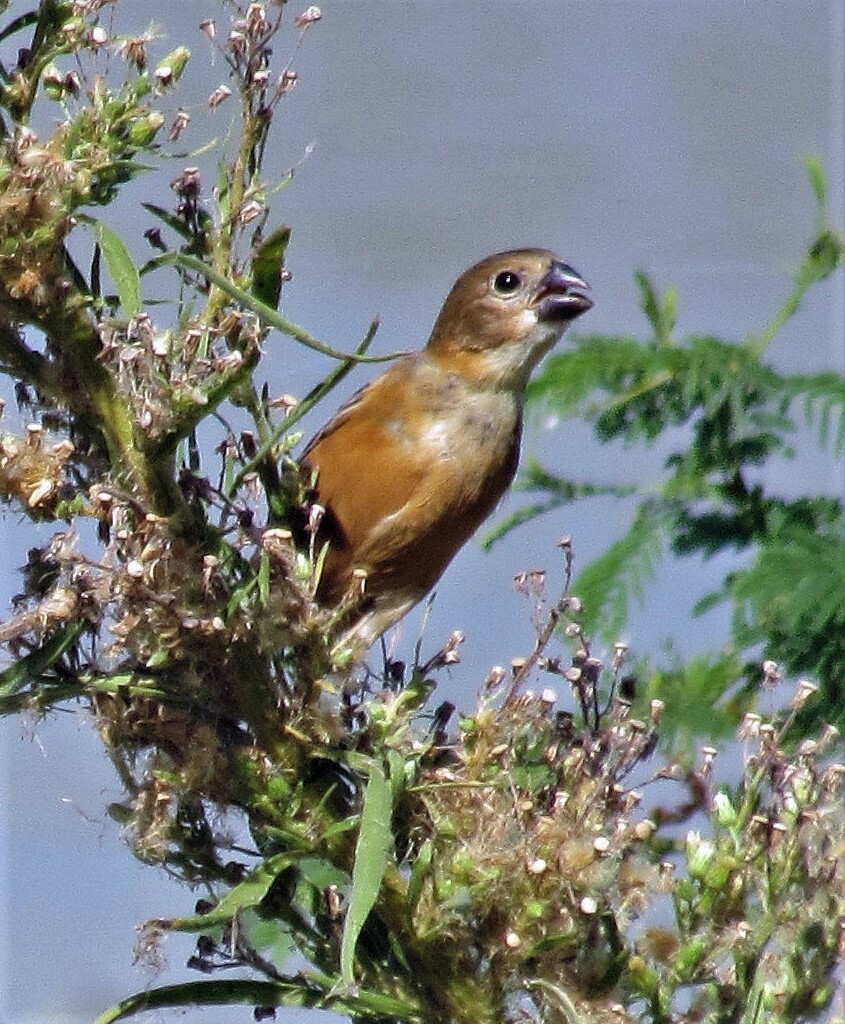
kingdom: Animalia
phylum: Chordata
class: Aves
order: Passeriformes
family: Thraupidae
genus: Sporophila
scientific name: Sporophila collaris
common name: Rusty-collared seedeater
